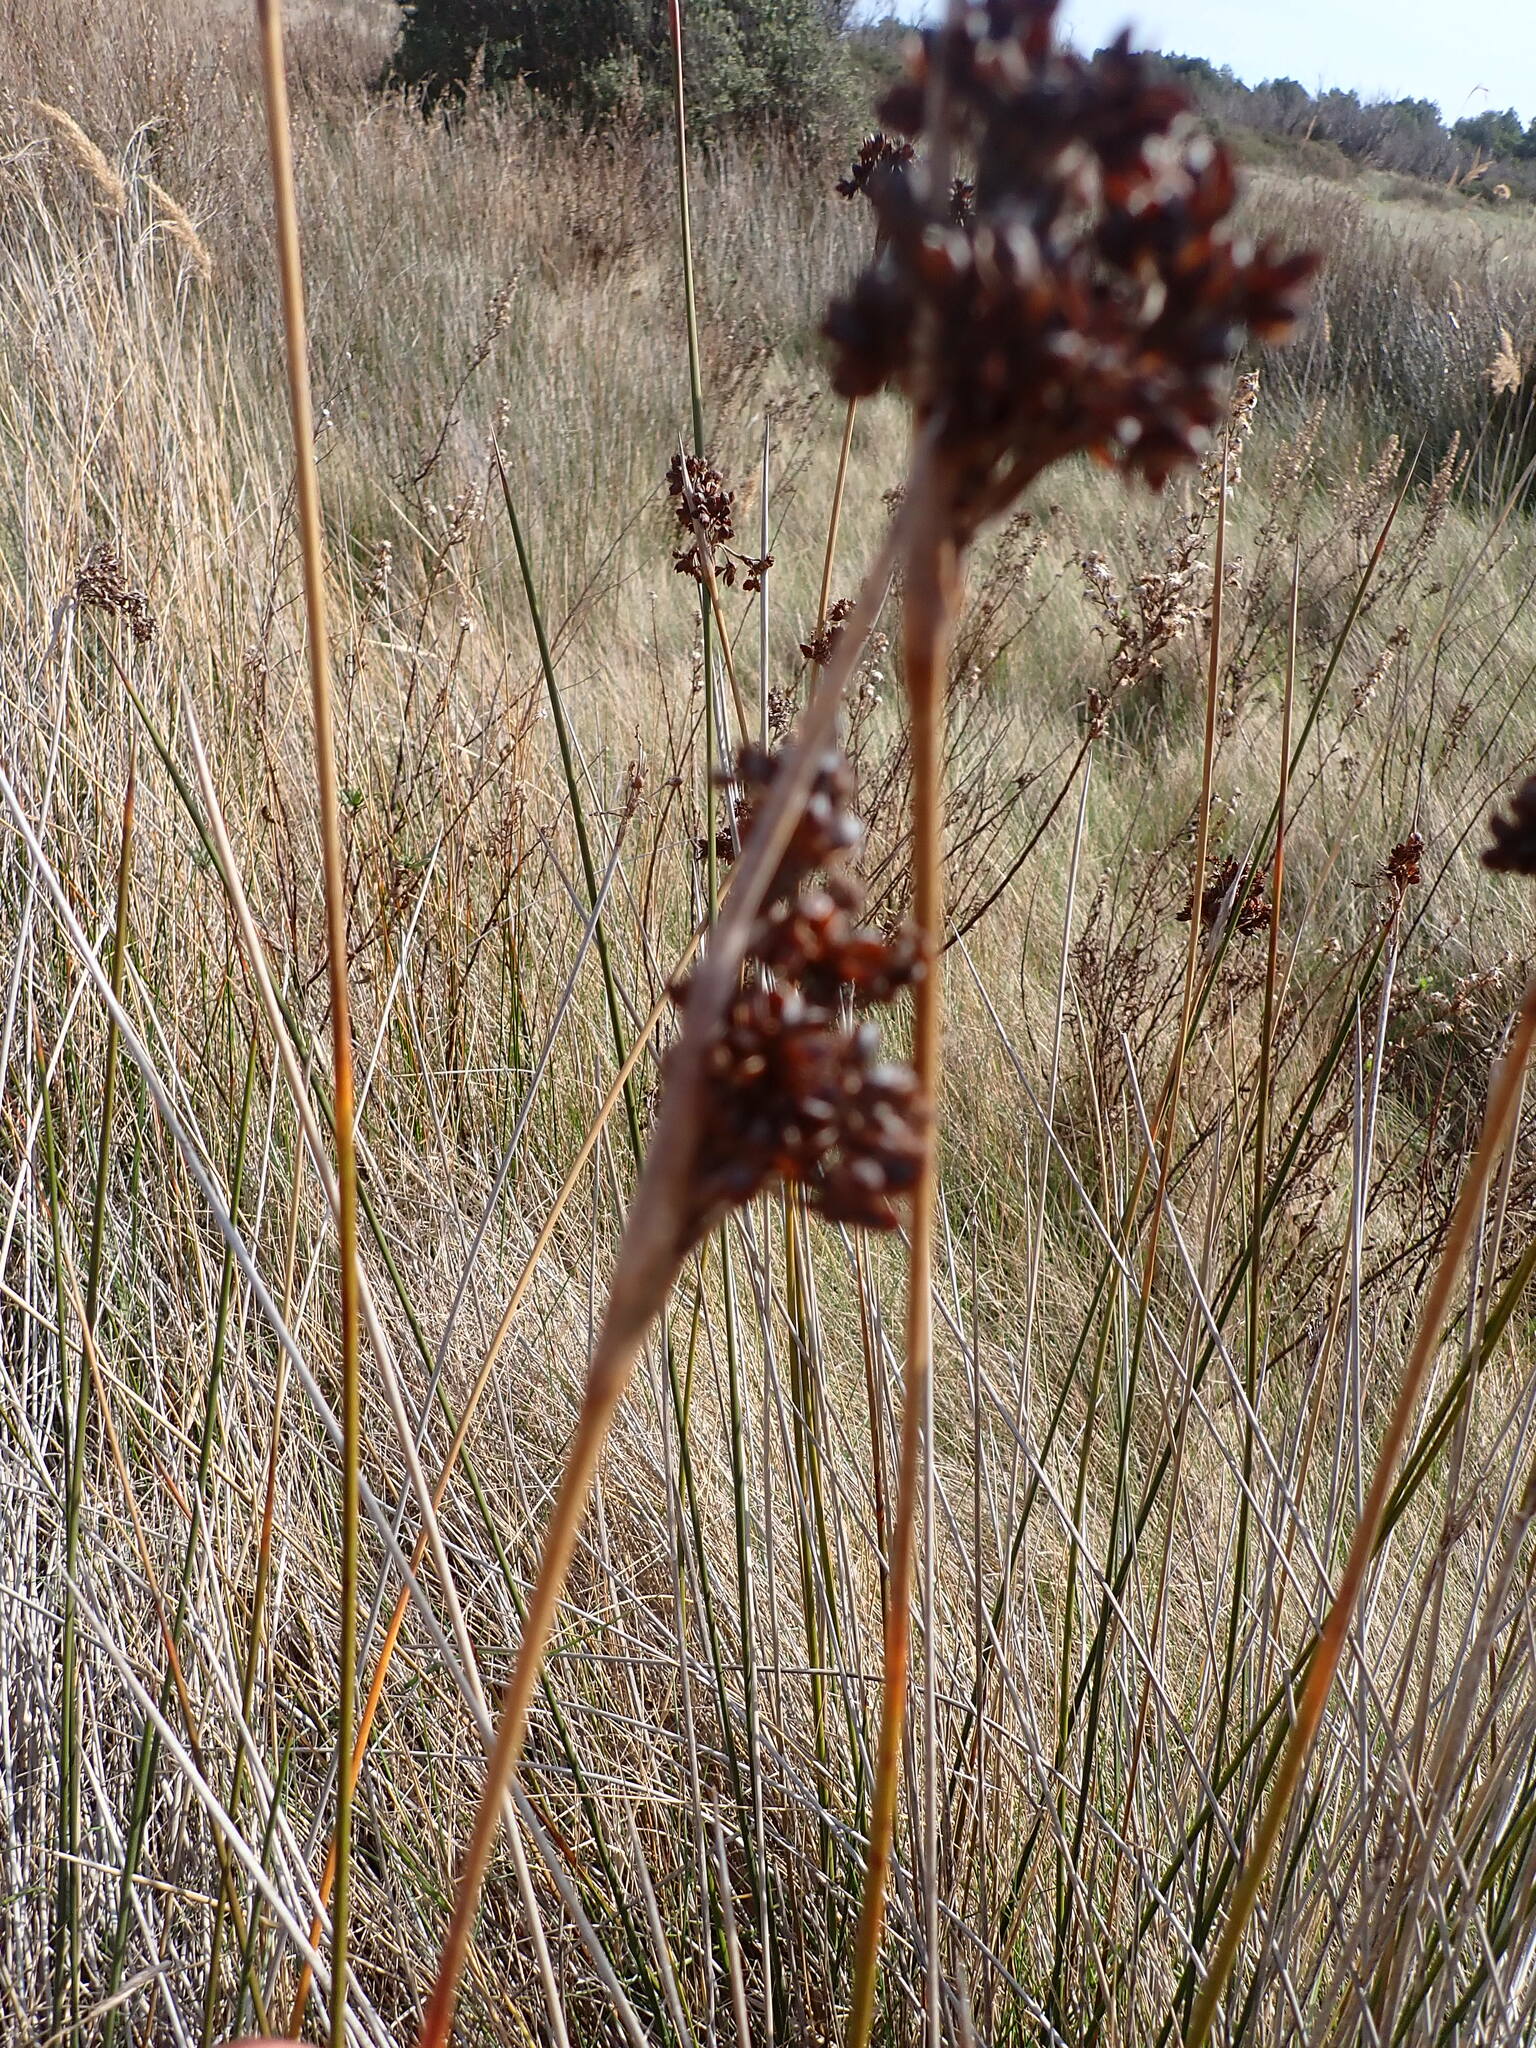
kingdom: Plantae
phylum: Tracheophyta
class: Liliopsida
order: Poales
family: Juncaceae
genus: Juncus
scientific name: Juncus acutus
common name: Sharp rush
